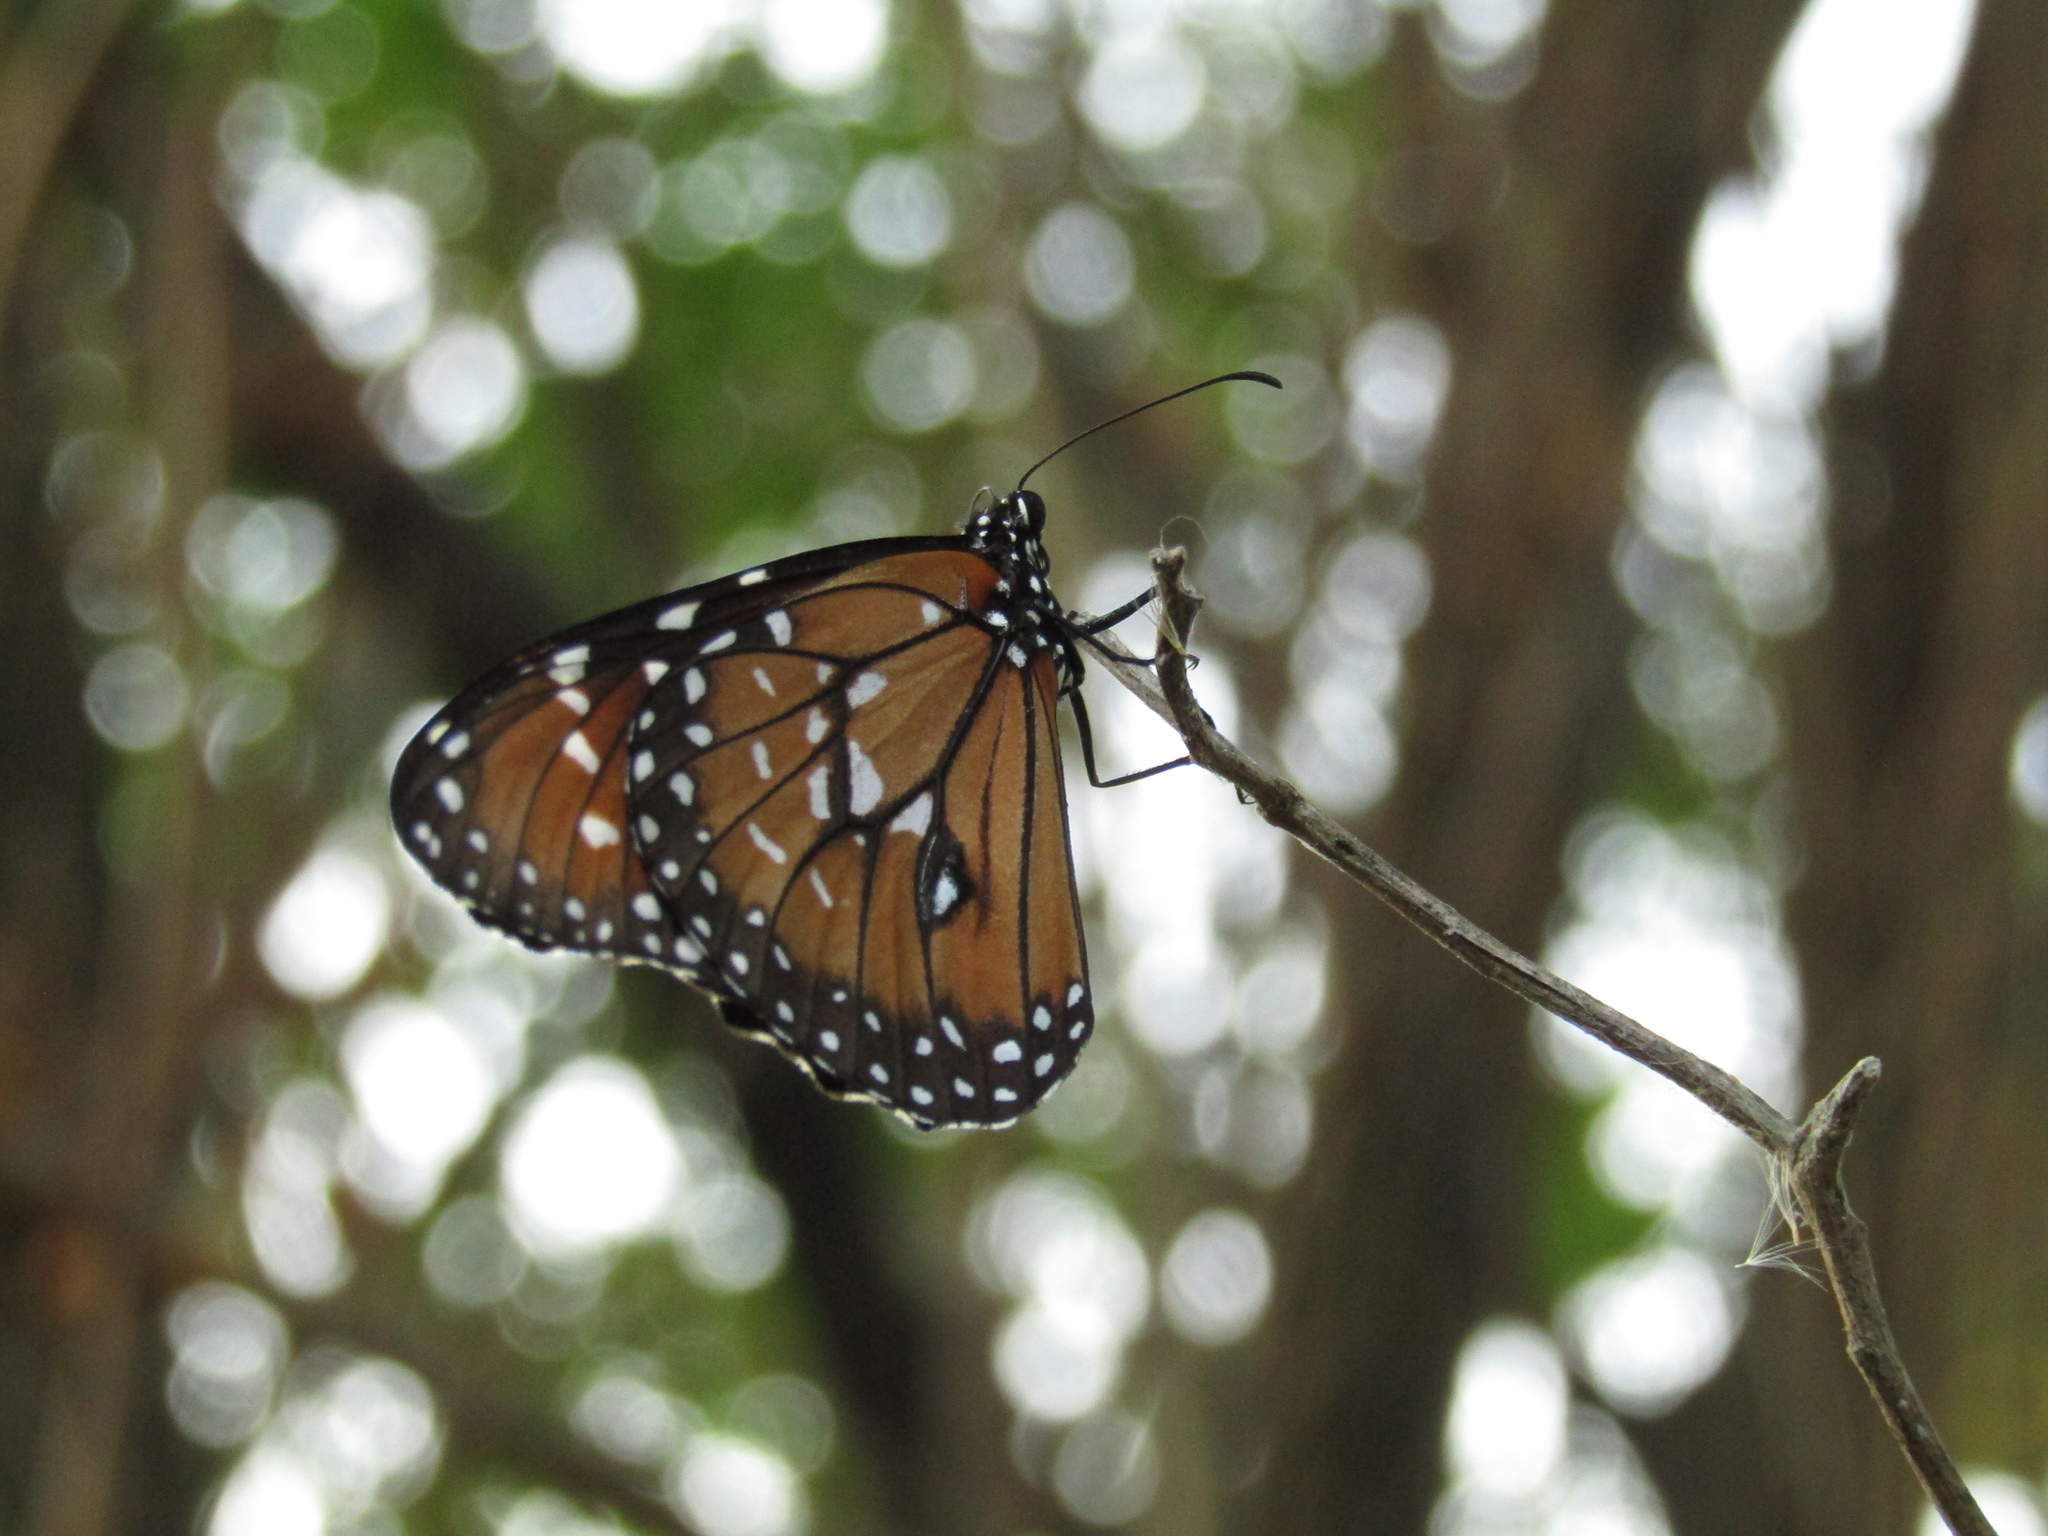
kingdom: Animalia
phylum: Arthropoda
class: Insecta
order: Lepidoptera
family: Nymphalidae
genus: Danaus
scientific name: Danaus eresimus
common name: Soldier
